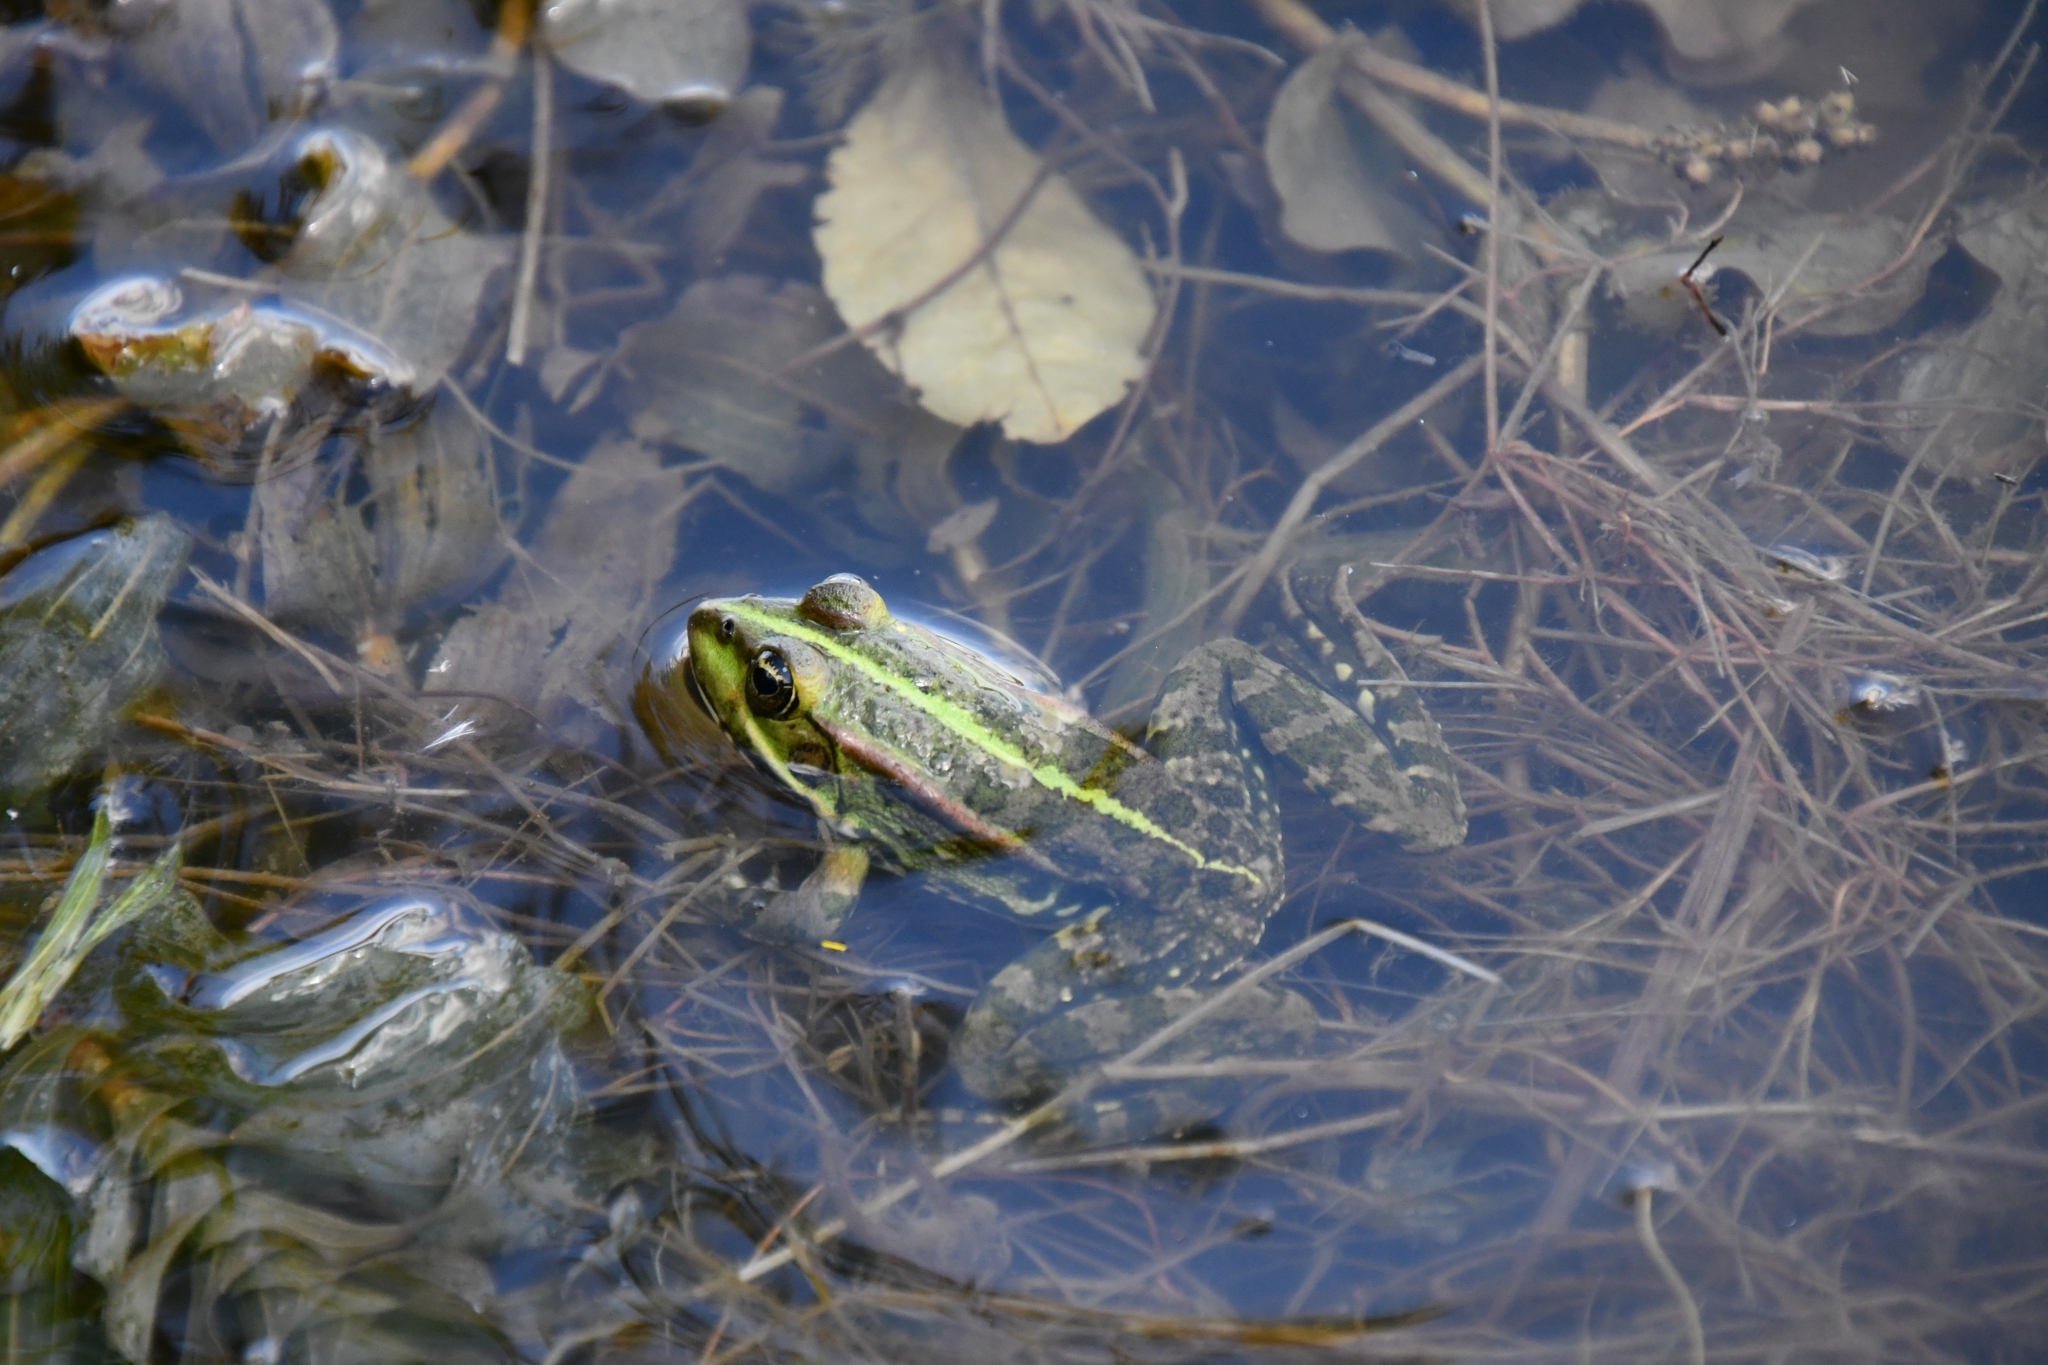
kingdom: Animalia
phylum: Chordata
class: Amphibia
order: Anura
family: Ranidae
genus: Pelophylax
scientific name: Pelophylax ridibundus
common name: Marsh frog
